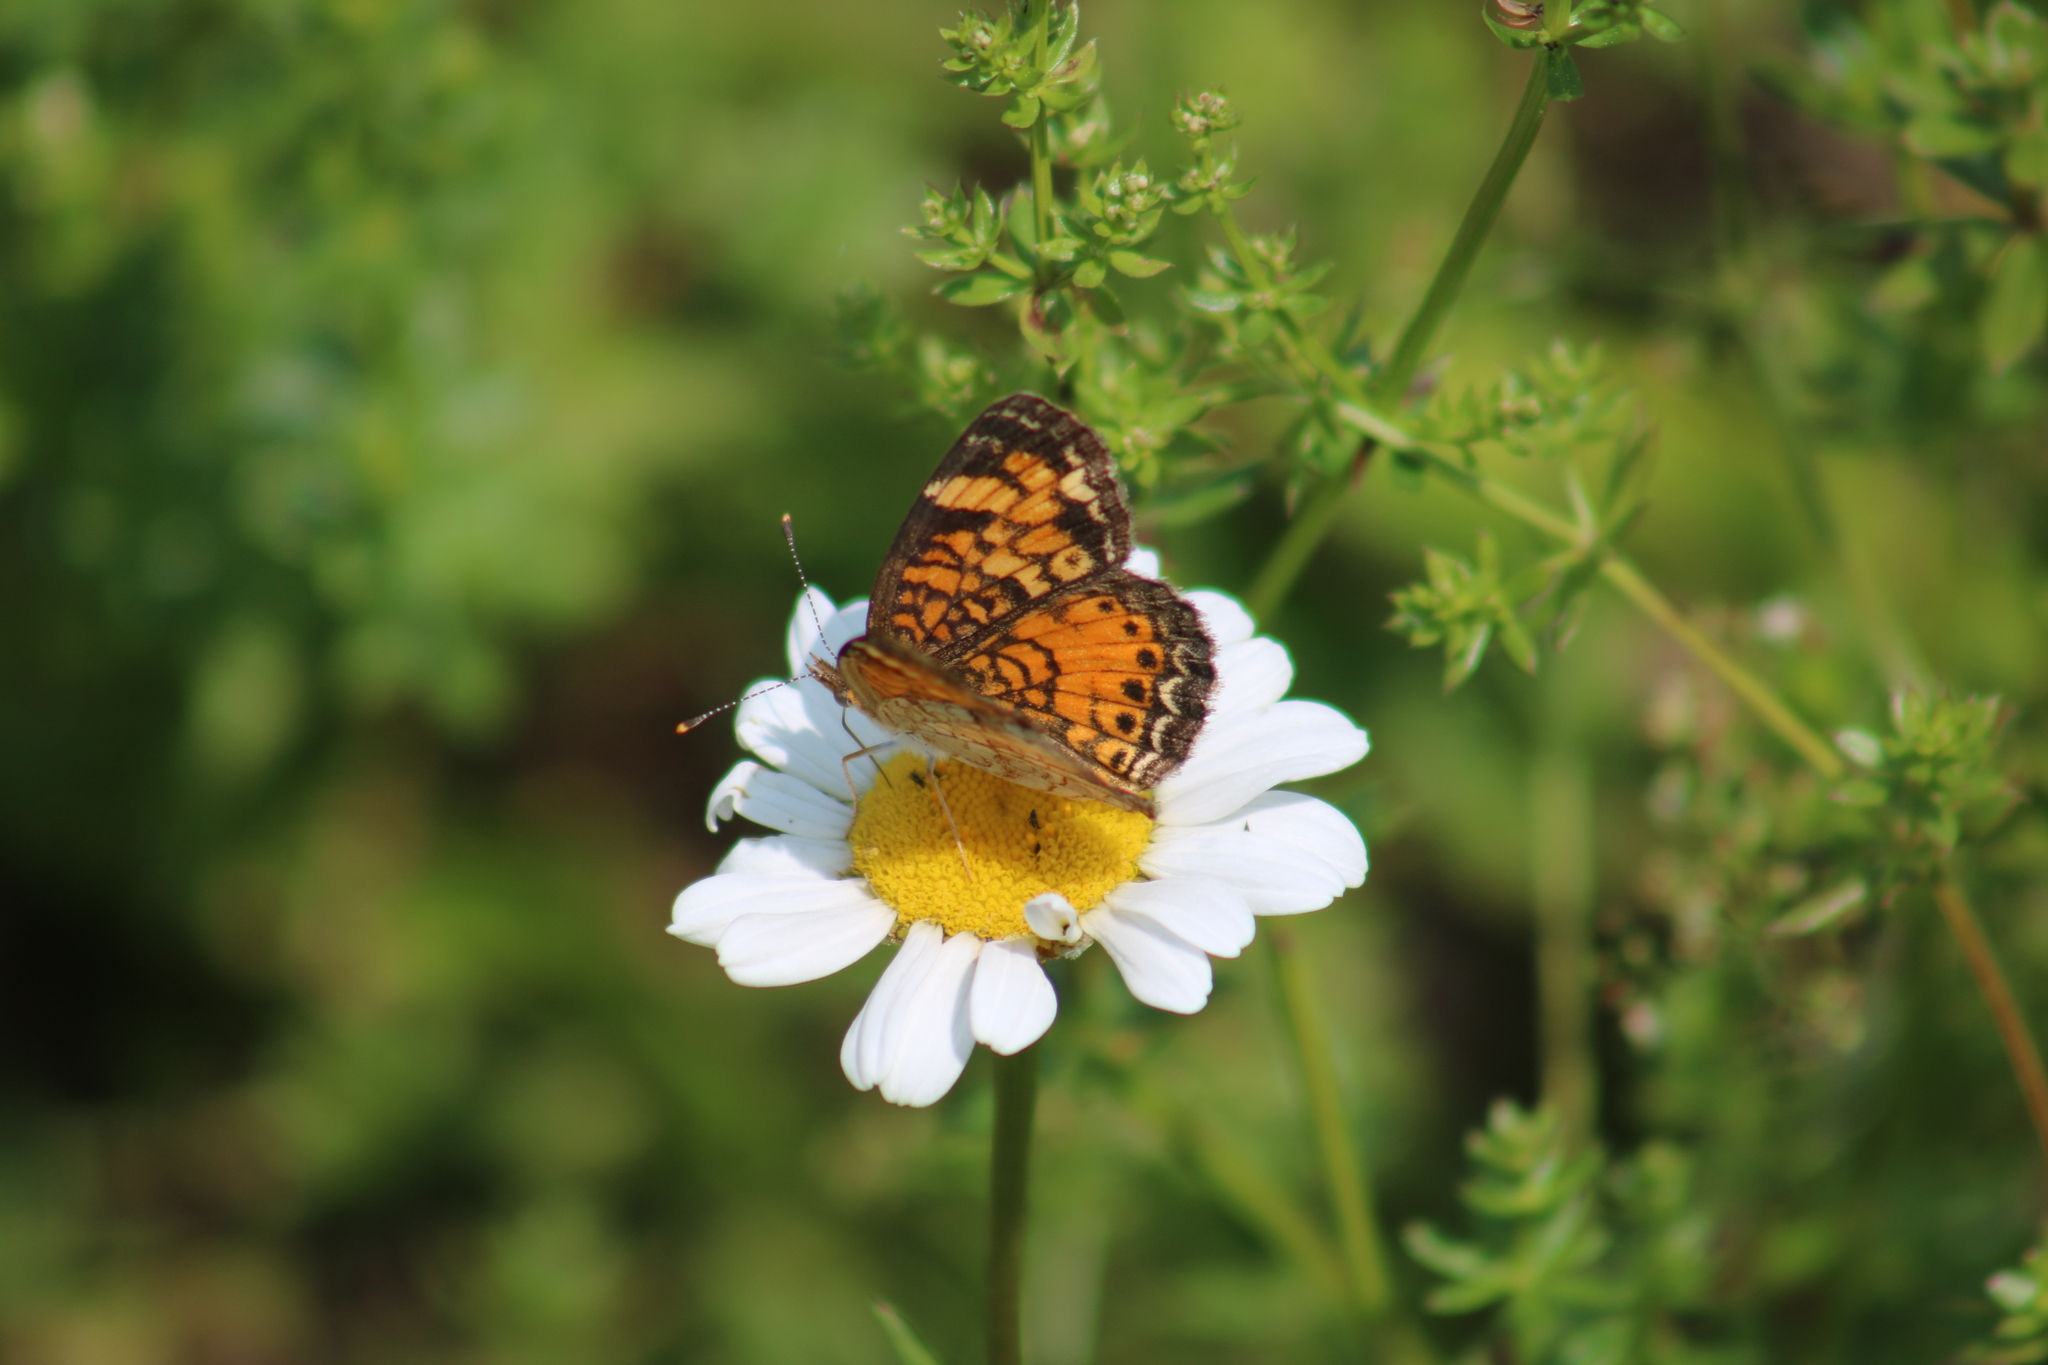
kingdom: Animalia
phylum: Arthropoda
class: Insecta
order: Lepidoptera
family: Nymphalidae
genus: Phyciodes
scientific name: Phyciodes tharos
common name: Pearl crescent
